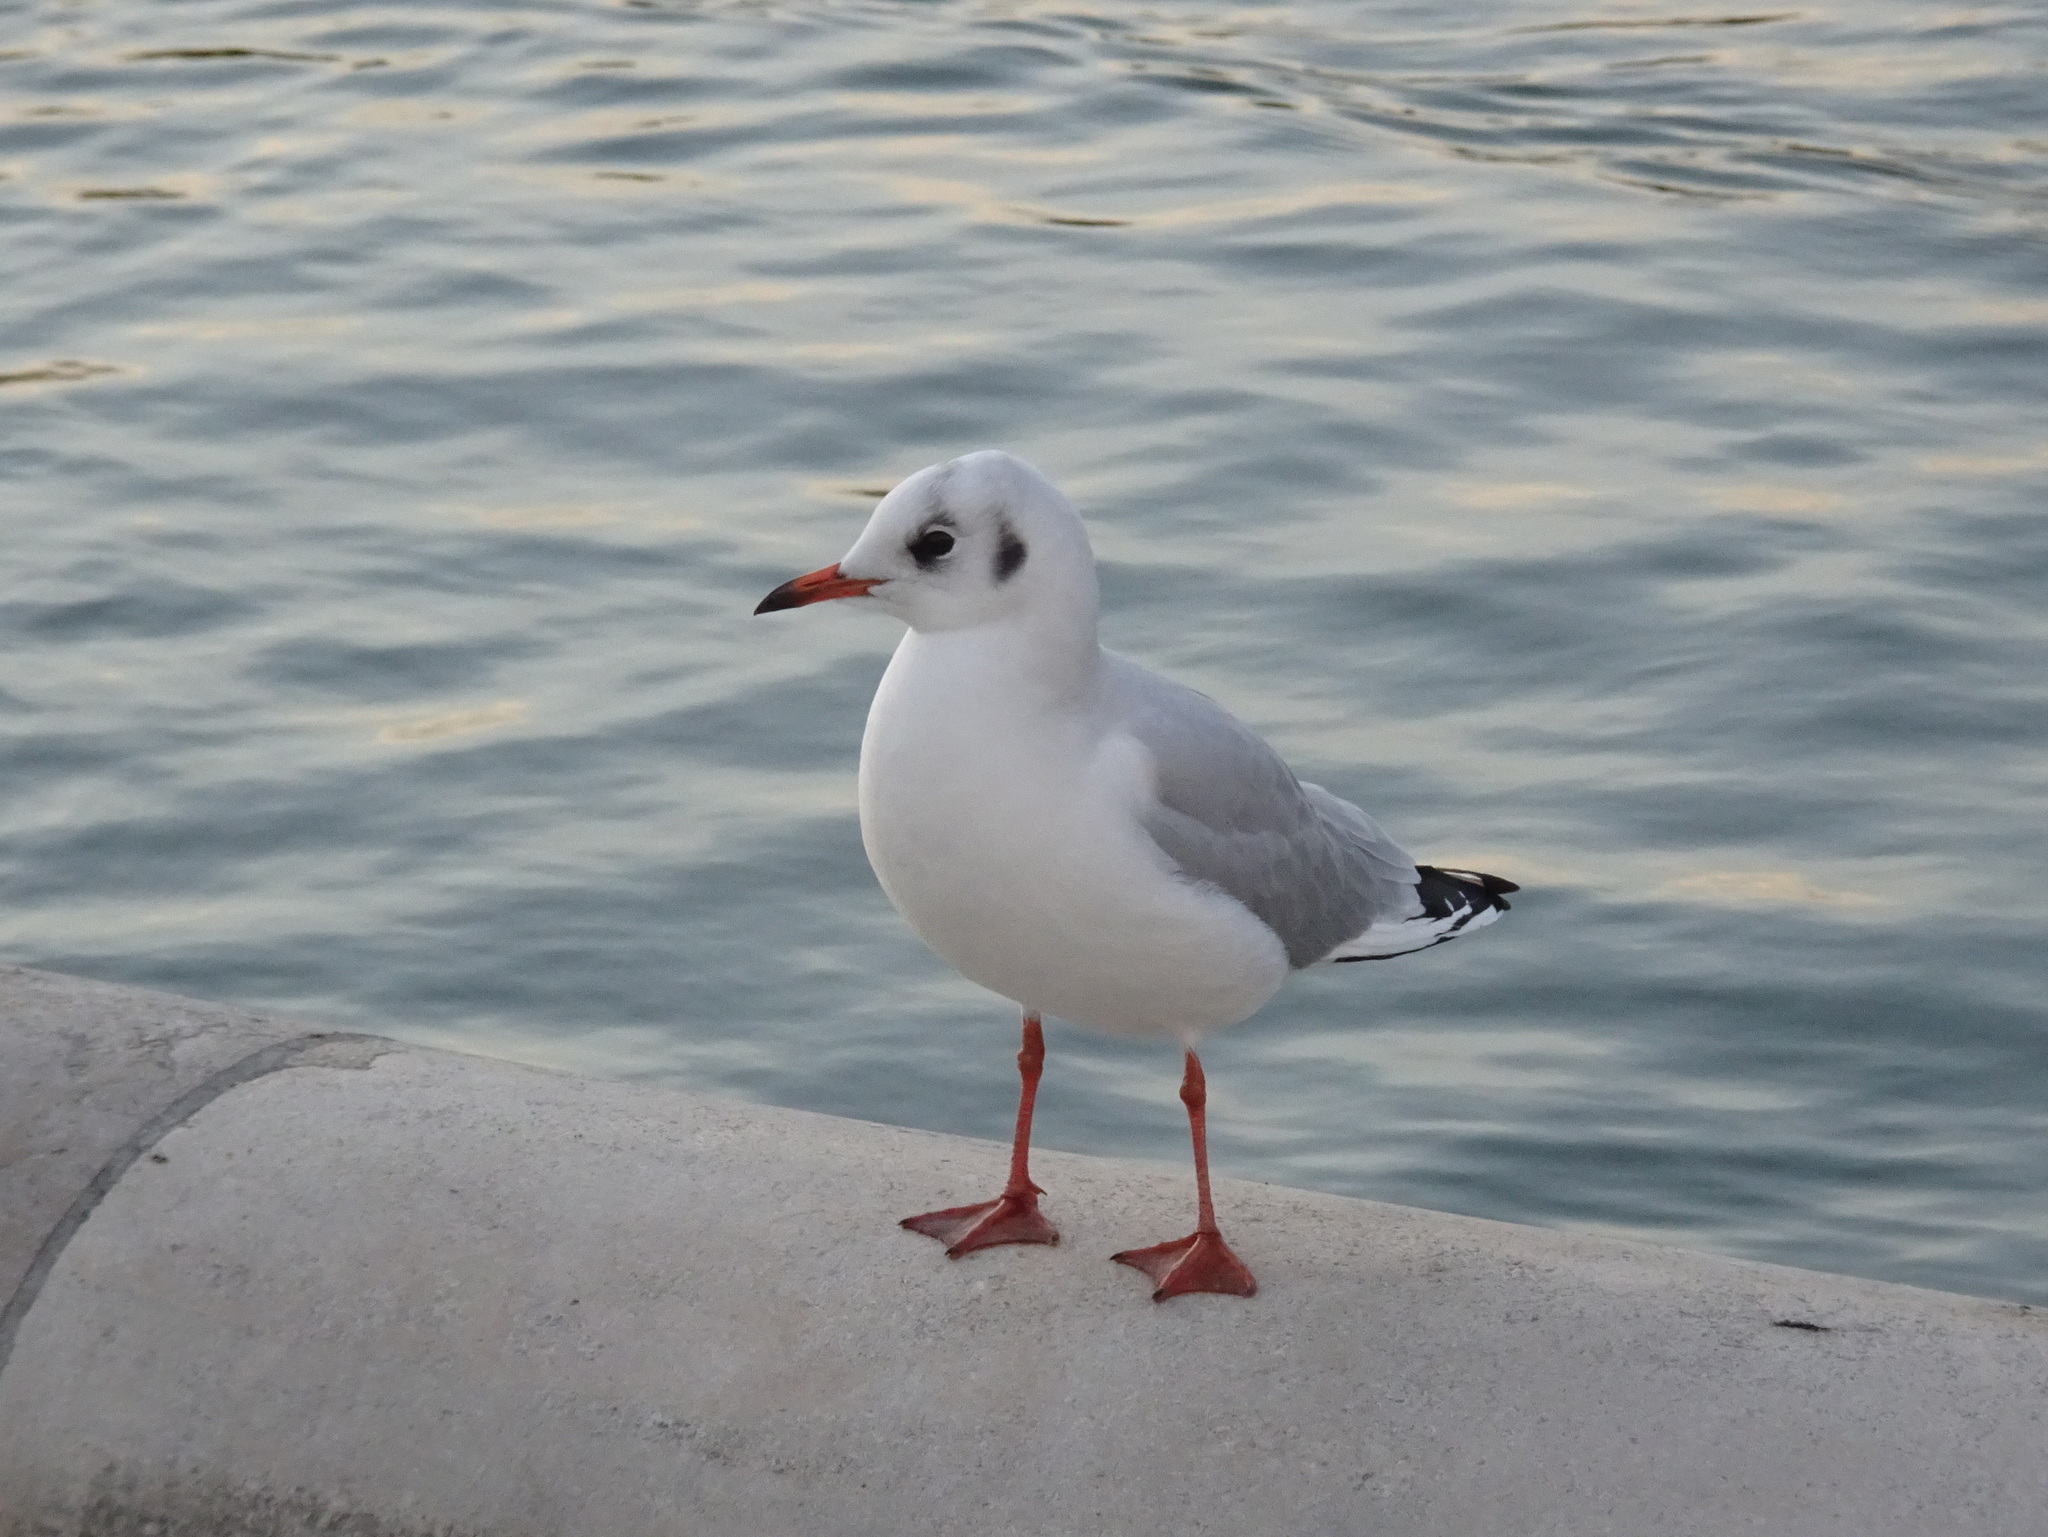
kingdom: Animalia
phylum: Chordata
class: Aves
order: Charadriiformes
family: Laridae
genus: Chroicocephalus
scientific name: Chroicocephalus ridibundus
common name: Black-headed gull
